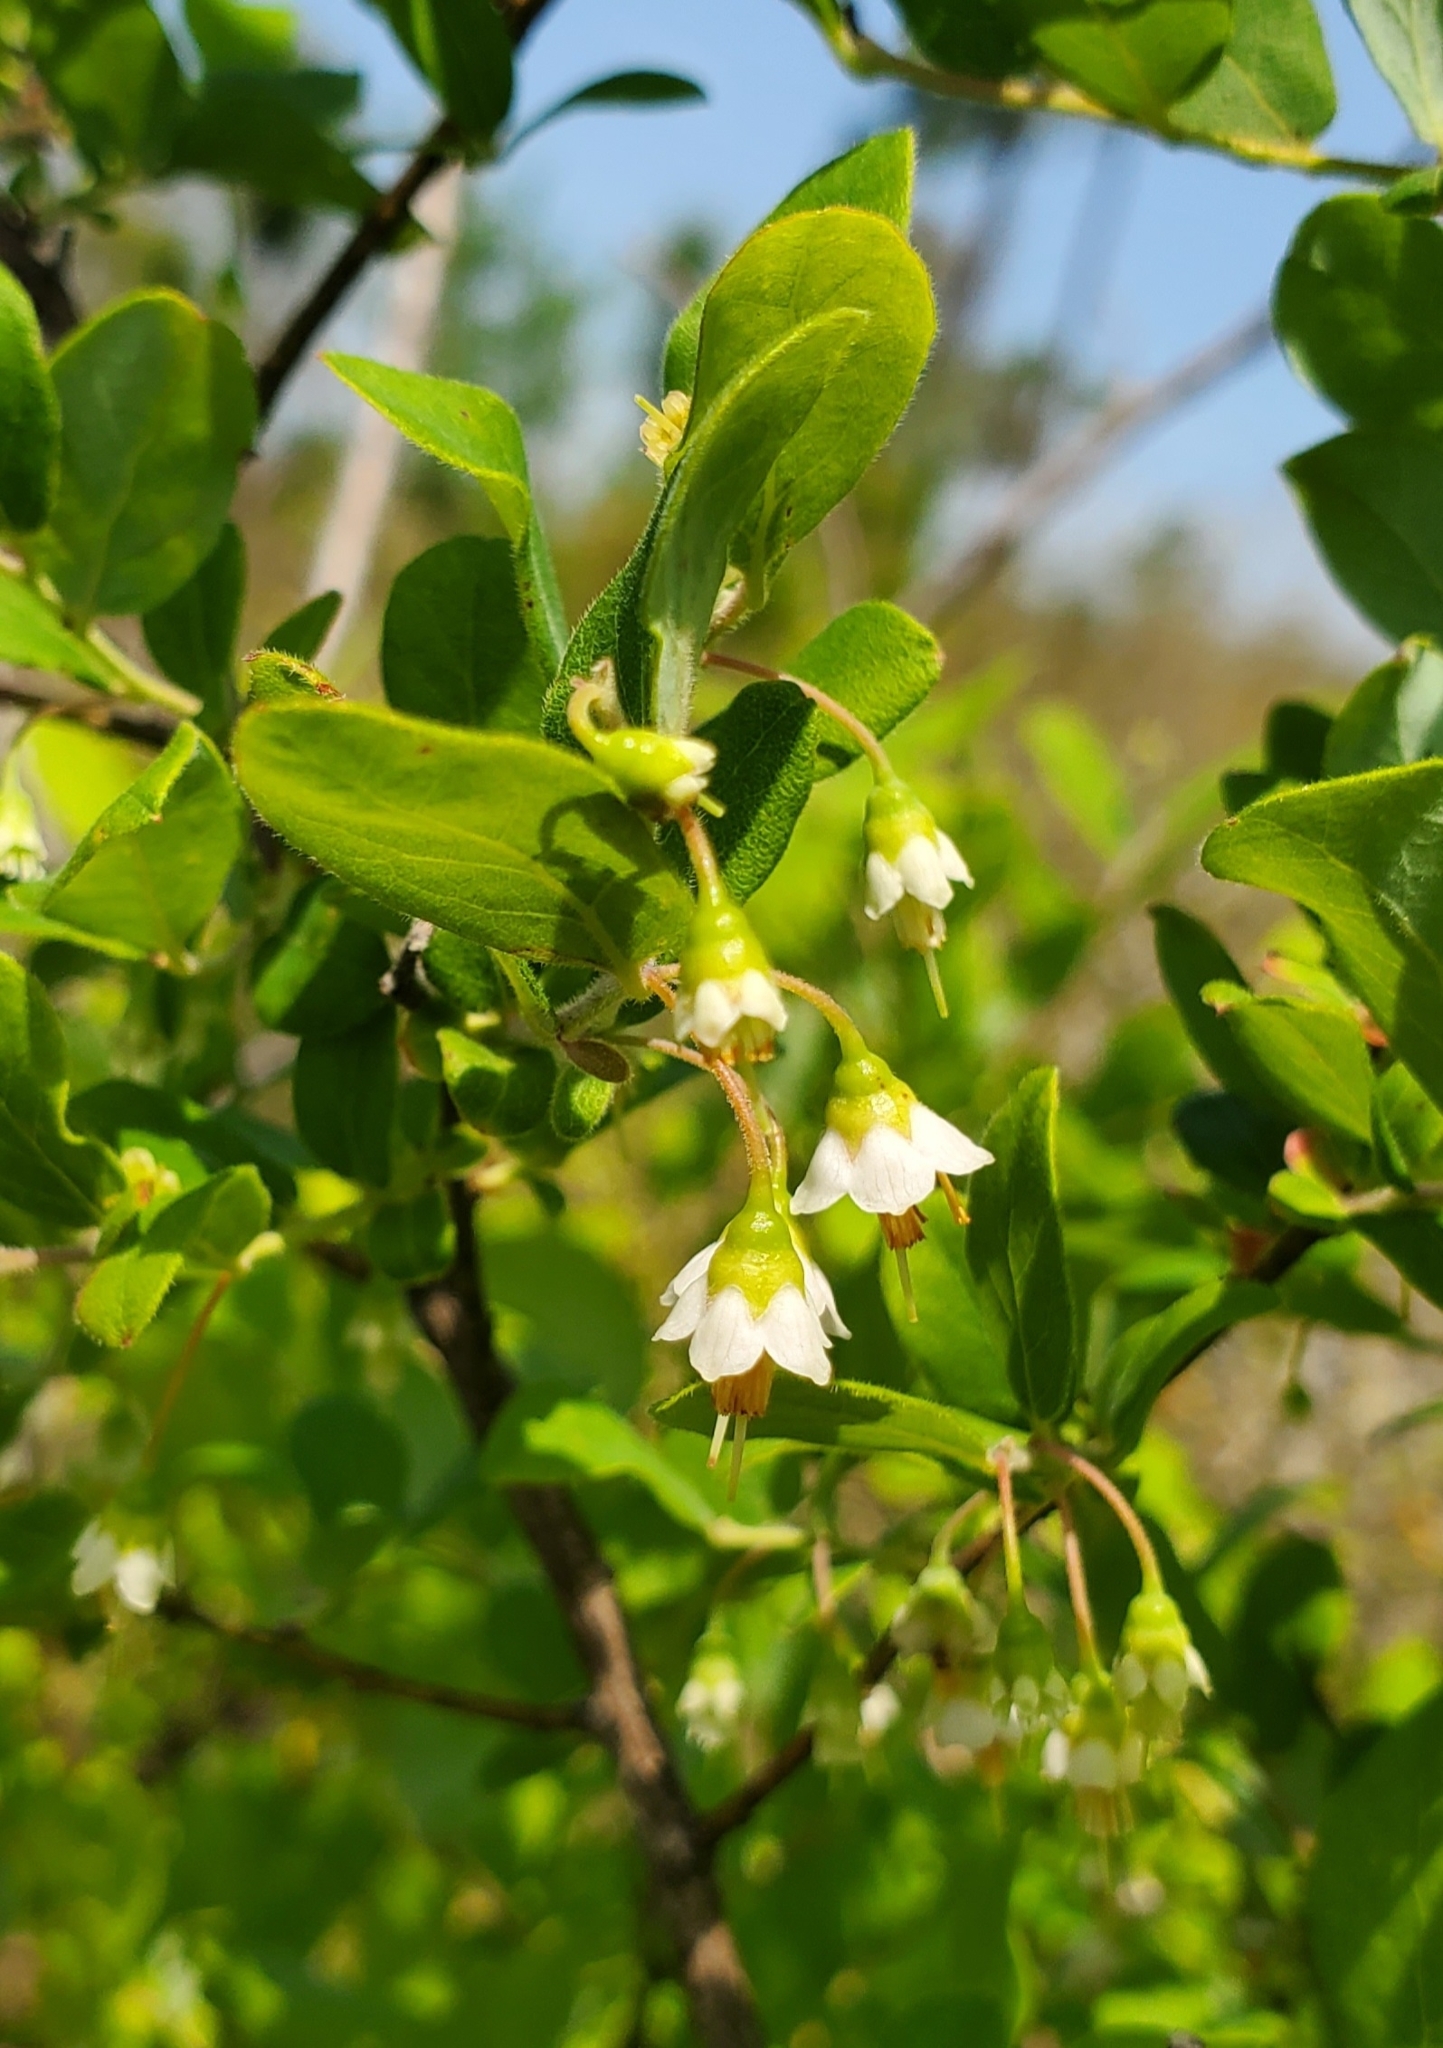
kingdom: Plantae
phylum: Tracheophyta
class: Magnoliopsida
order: Ericales
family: Ericaceae
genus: Vaccinium
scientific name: Vaccinium stamineum
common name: Deerberry
